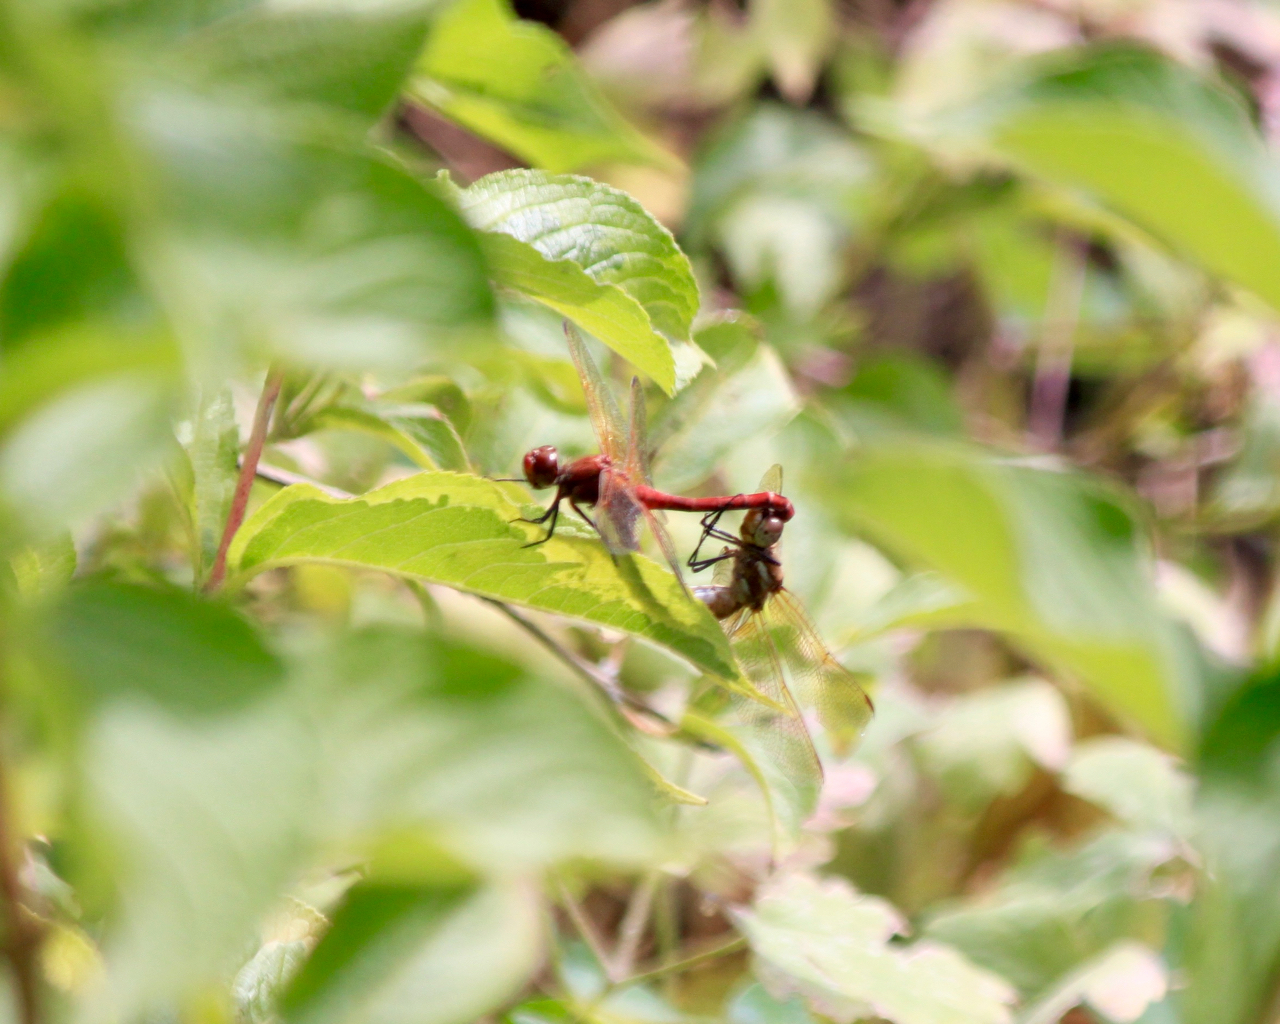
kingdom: Animalia
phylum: Arthropoda
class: Insecta
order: Odonata
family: Libellulidae
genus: Sympetrum
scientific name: Sympetrum madidum
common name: Red-veined meadowhawk
